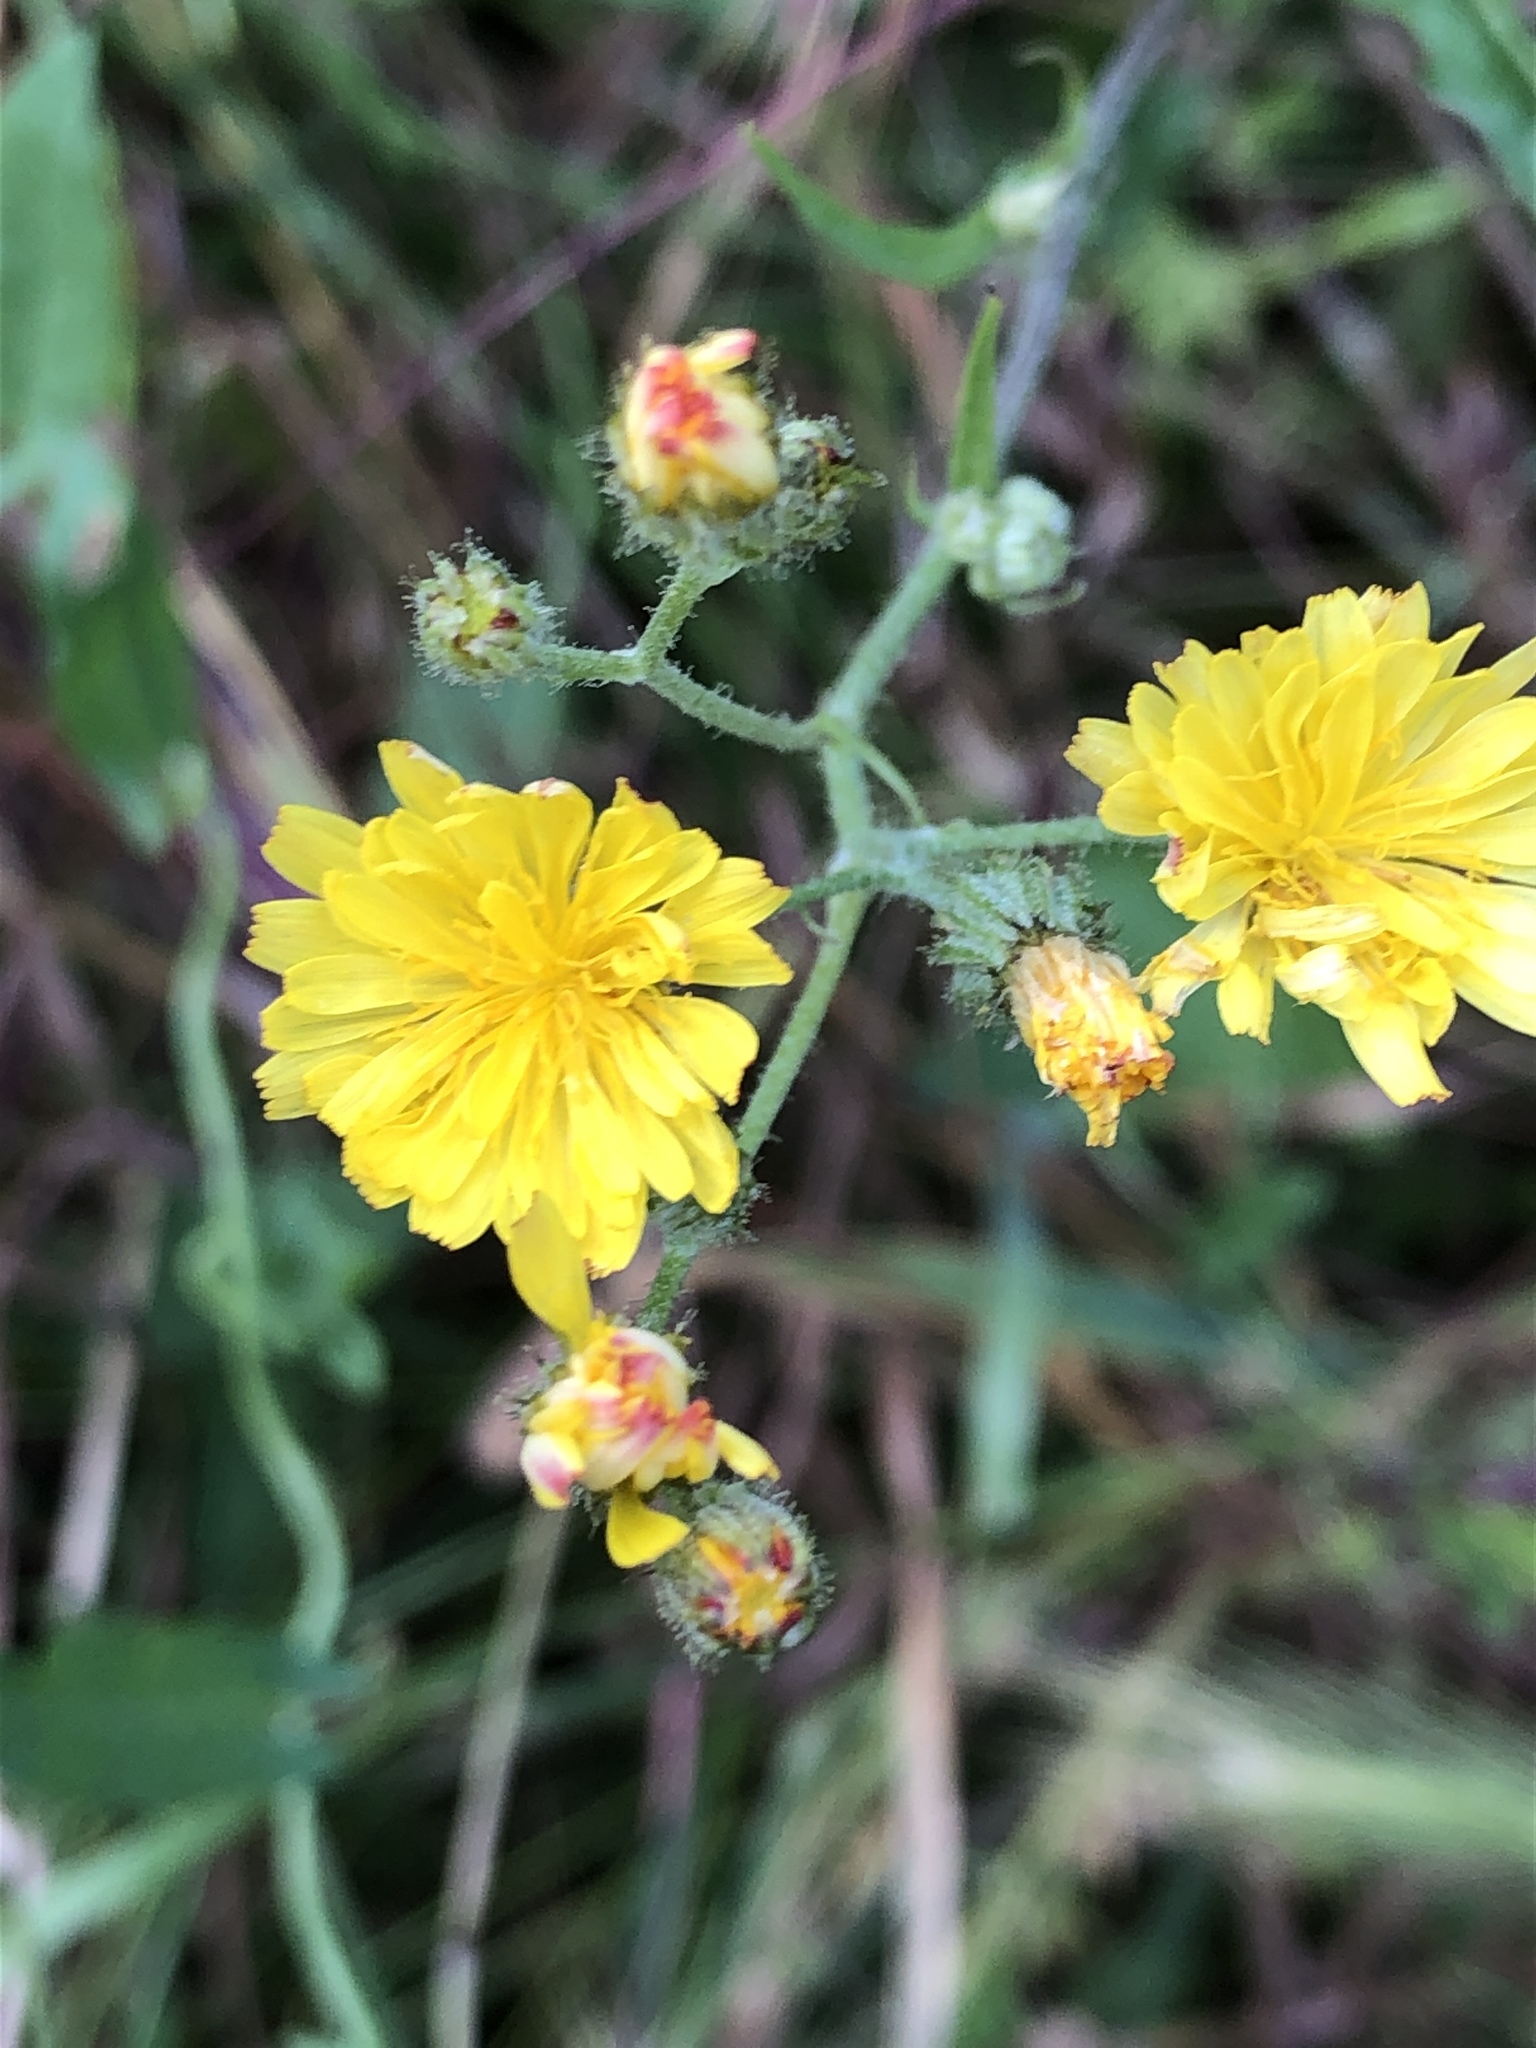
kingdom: Plantae
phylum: Tracheophyta
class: Magnoliopsida
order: Asterales
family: Asteraceae
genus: Picris
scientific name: Picris hieracioides
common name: Hawkweed oxtongue
